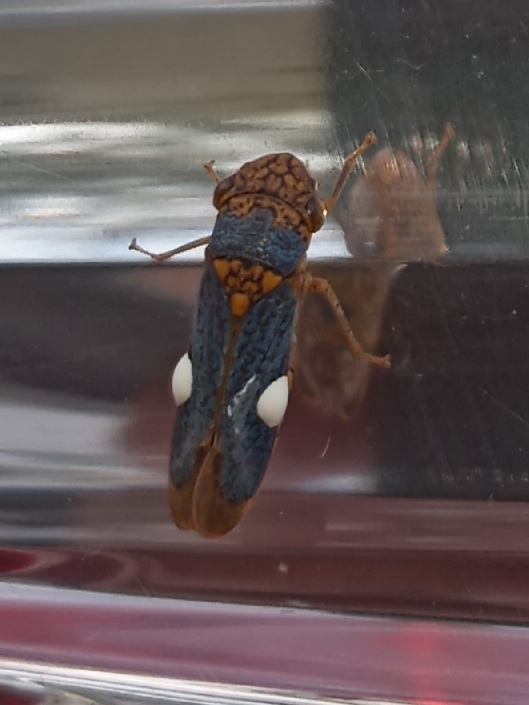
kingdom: Animalia
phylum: Arthropoda
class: Insecta
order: Hemiptera
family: Cicadellidae
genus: Oncometopia
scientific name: Oncometopia orbona
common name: Broad-headed sharpshooter
